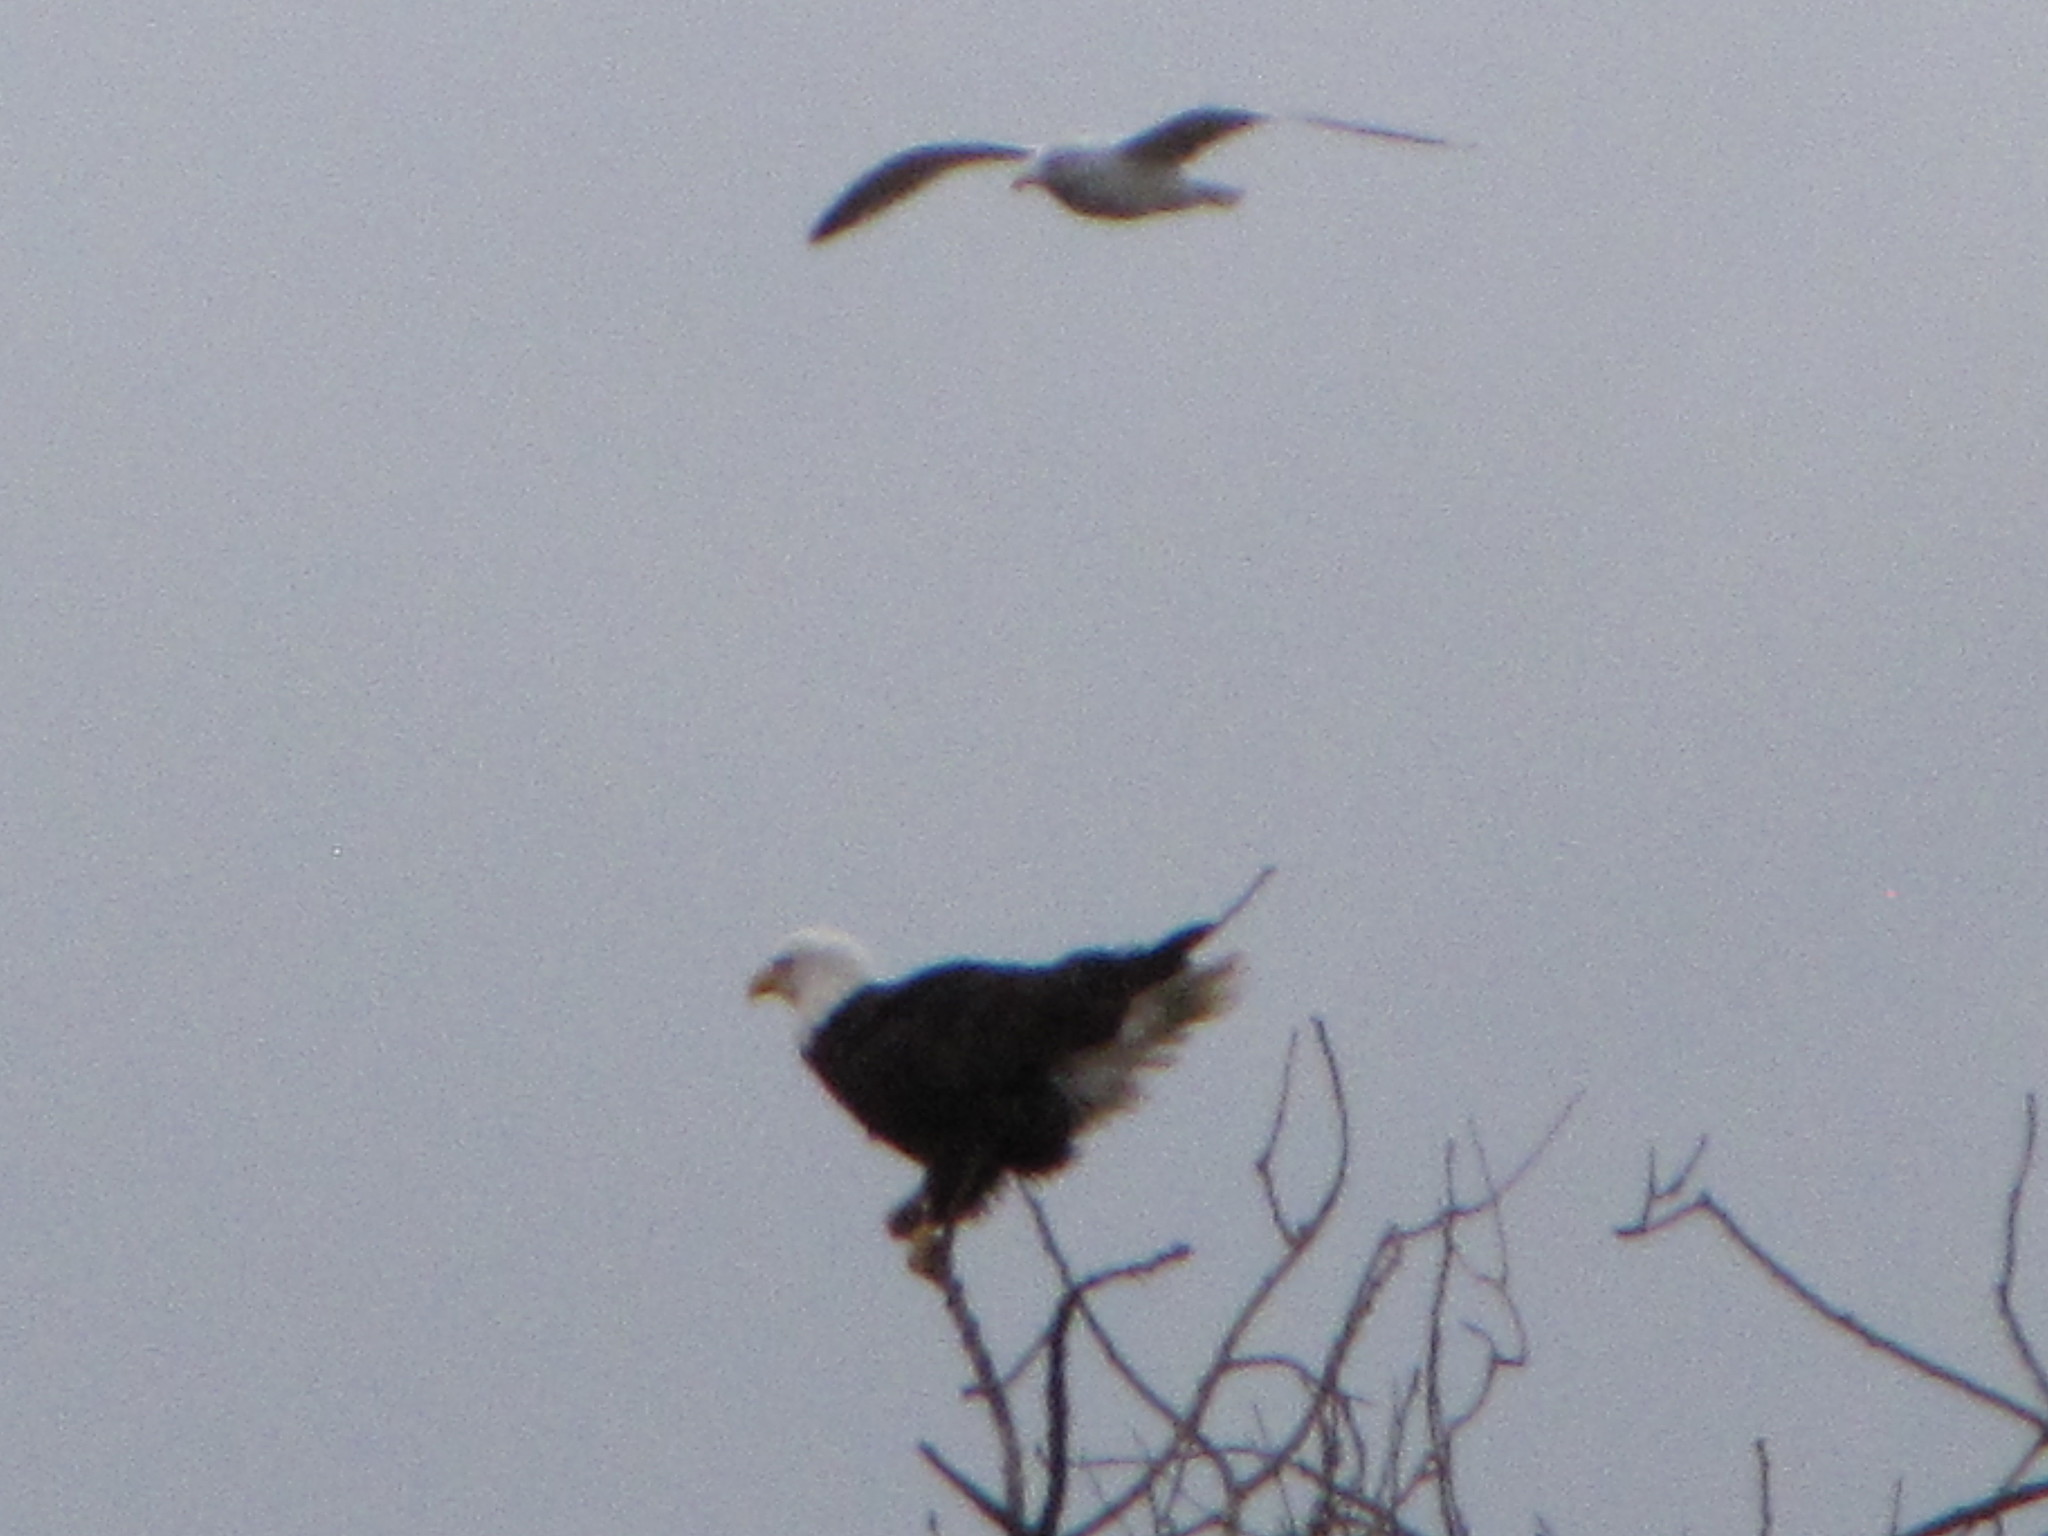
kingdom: Animalia
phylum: Chordata
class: Aves
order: Accipitriformes
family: Accipitridae
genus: Haliaeetus
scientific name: Haliaeetus leucocephalus
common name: Bald eagle
